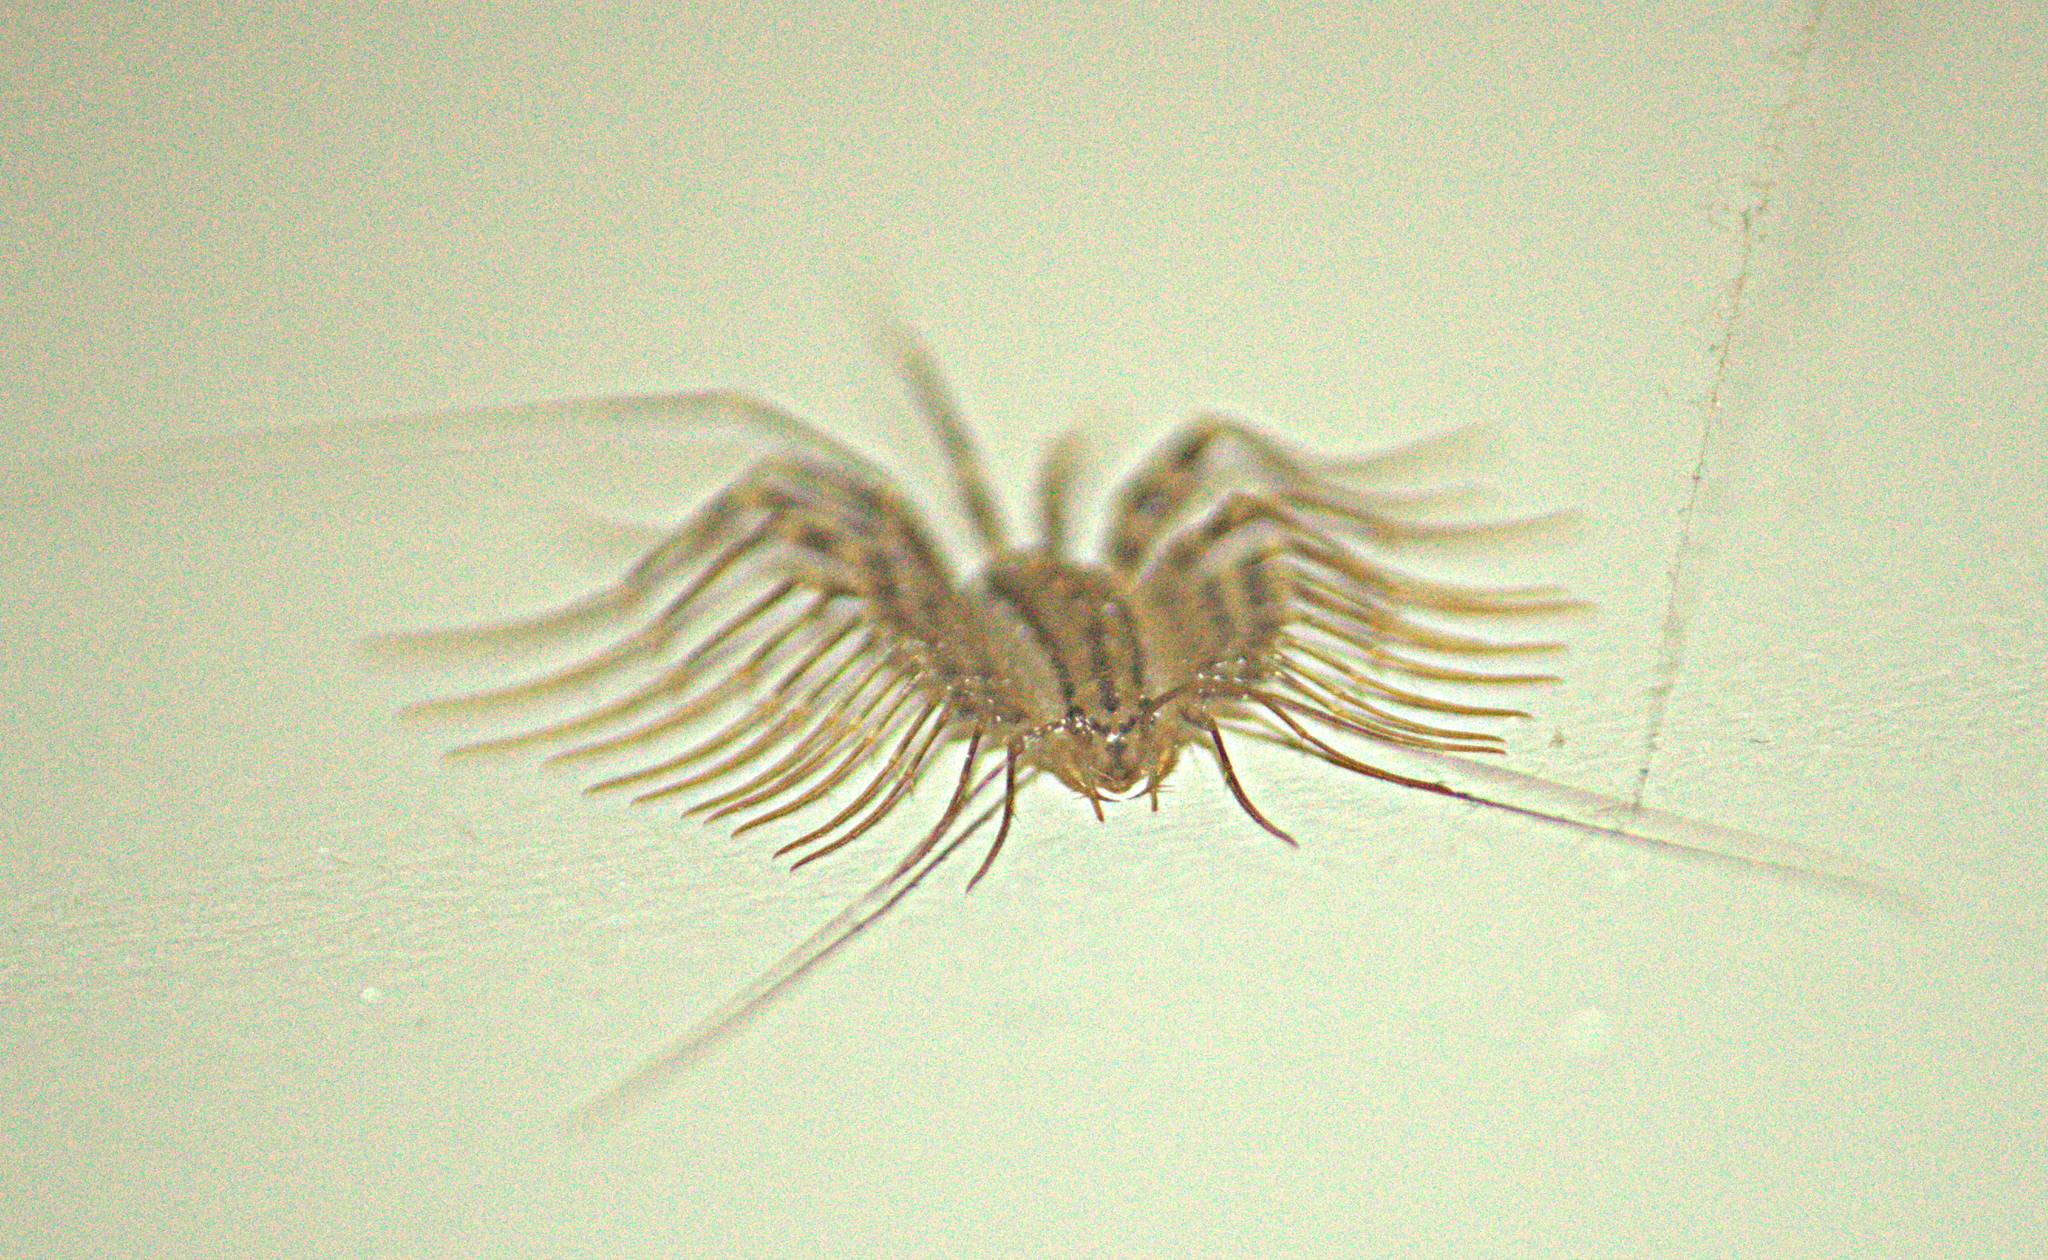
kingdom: Animalia
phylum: Arthropoda
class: Chilopoda
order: Scutigeromorpha
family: Scutigeridae
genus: Scutigera
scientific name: Scutigera coleoptrata
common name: House centipede
